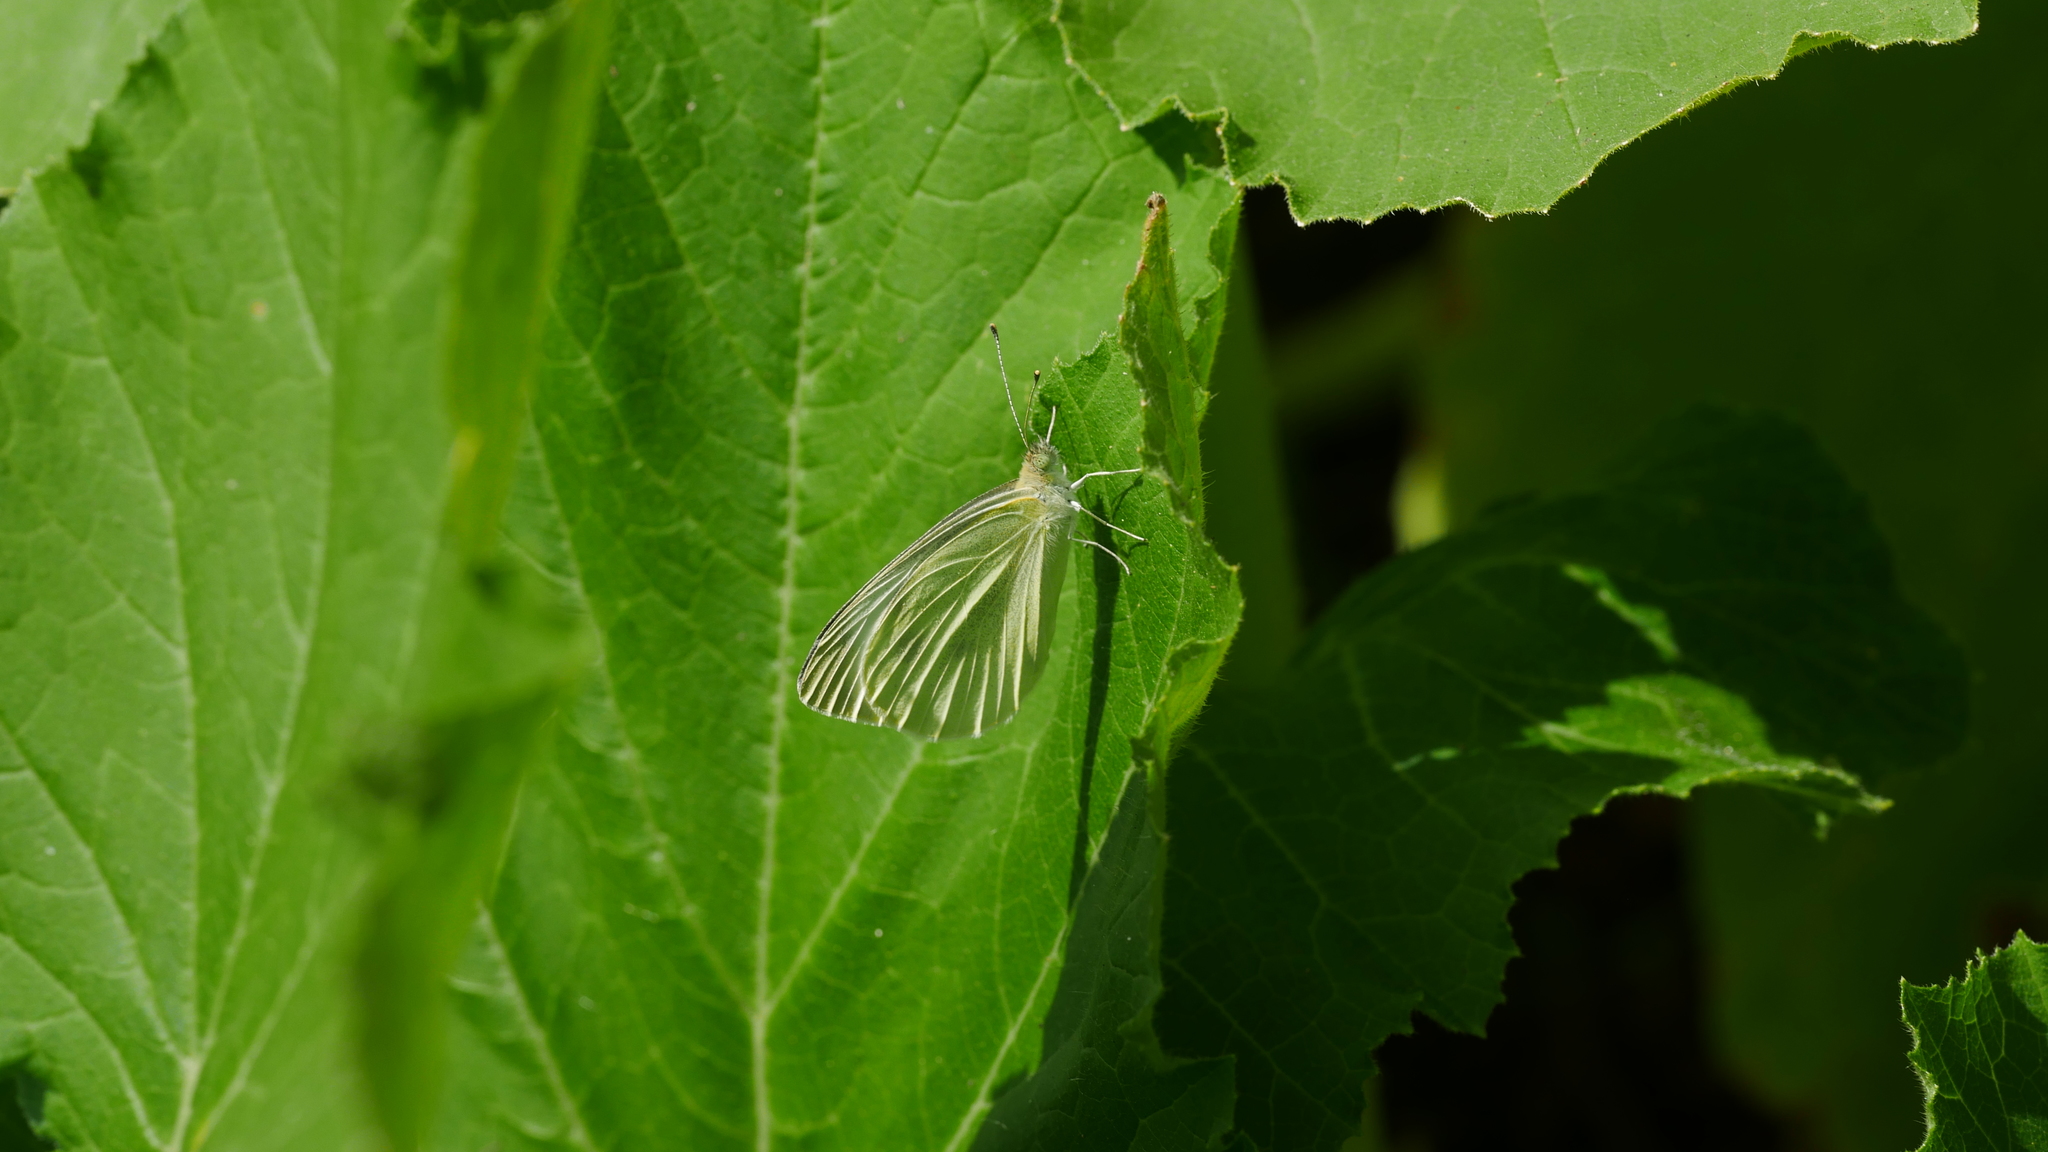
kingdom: Animalia
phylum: Arthropoda
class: Insecta
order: Lepidoptera
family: Pieridae
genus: Pieris
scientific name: Pieris rapae
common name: Small white
